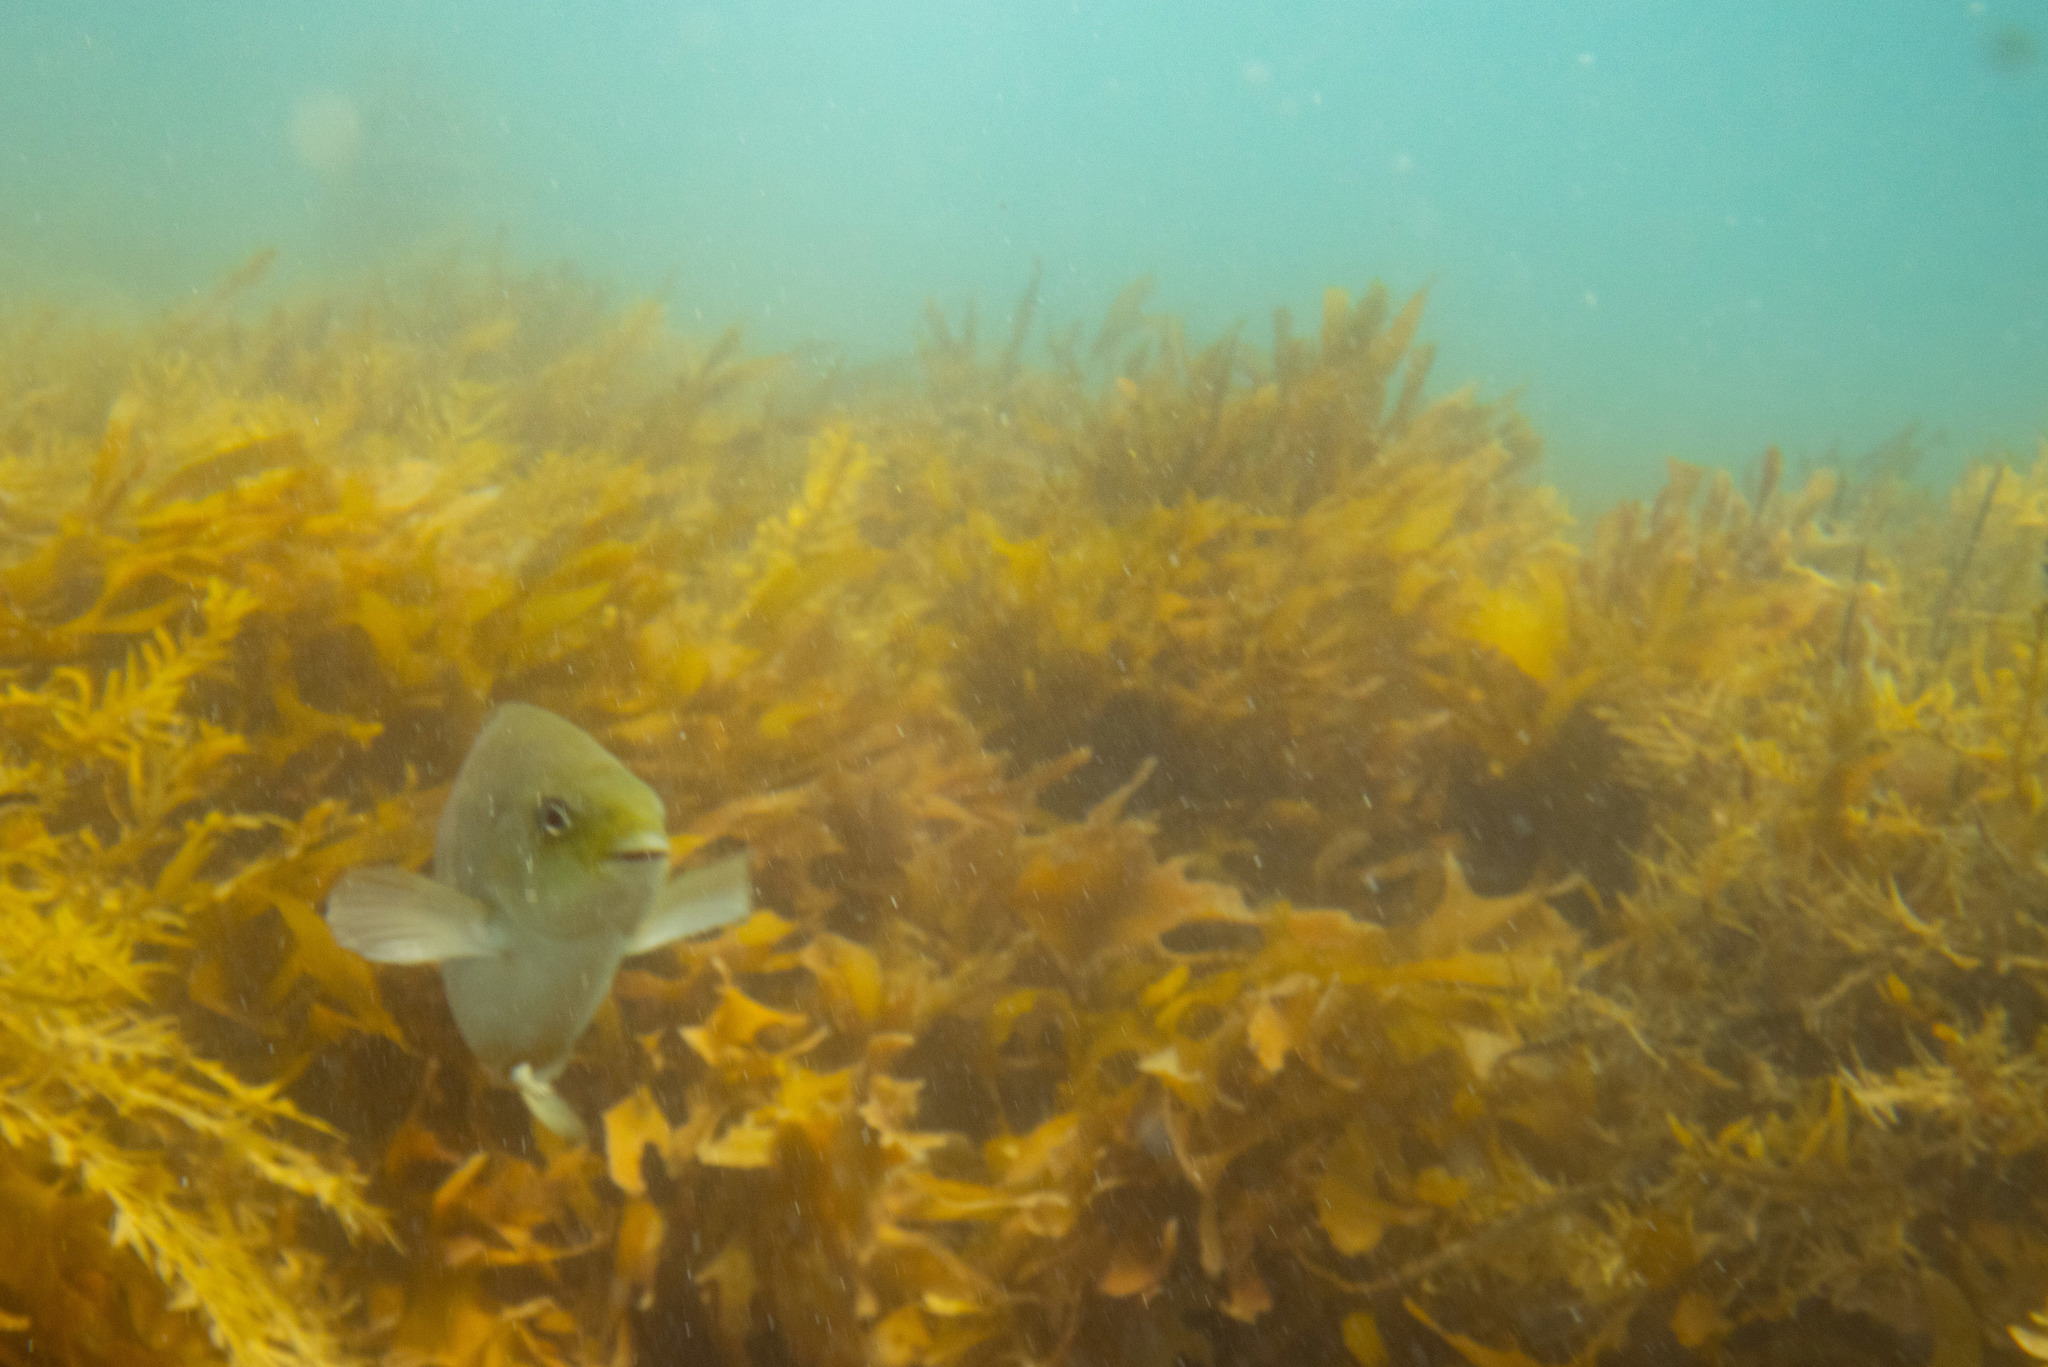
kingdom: Animalia
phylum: Chordata
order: Perciformes
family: Kyphosidae
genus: Girella
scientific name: Girella tricuspidata
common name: Parore
